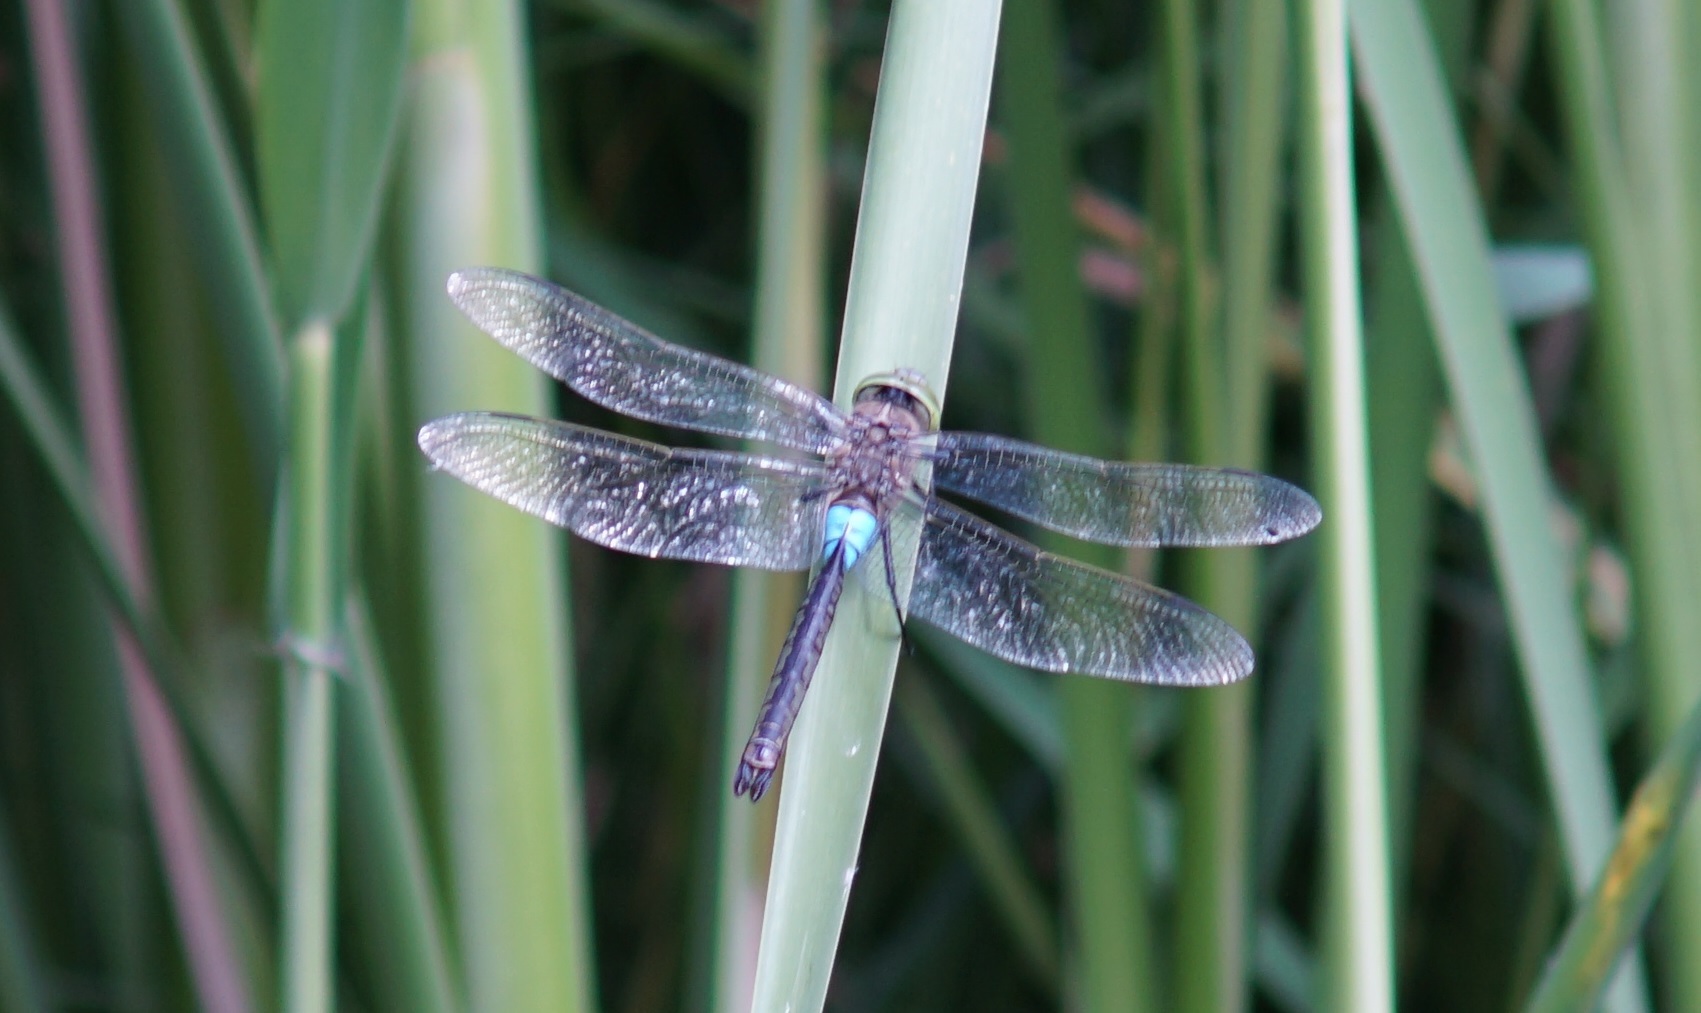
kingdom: Animalia
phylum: Arthropoda
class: Insecta
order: Odonata
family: Aeshnidae
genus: Anax
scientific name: Anax parthenope
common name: Lesser emperor
